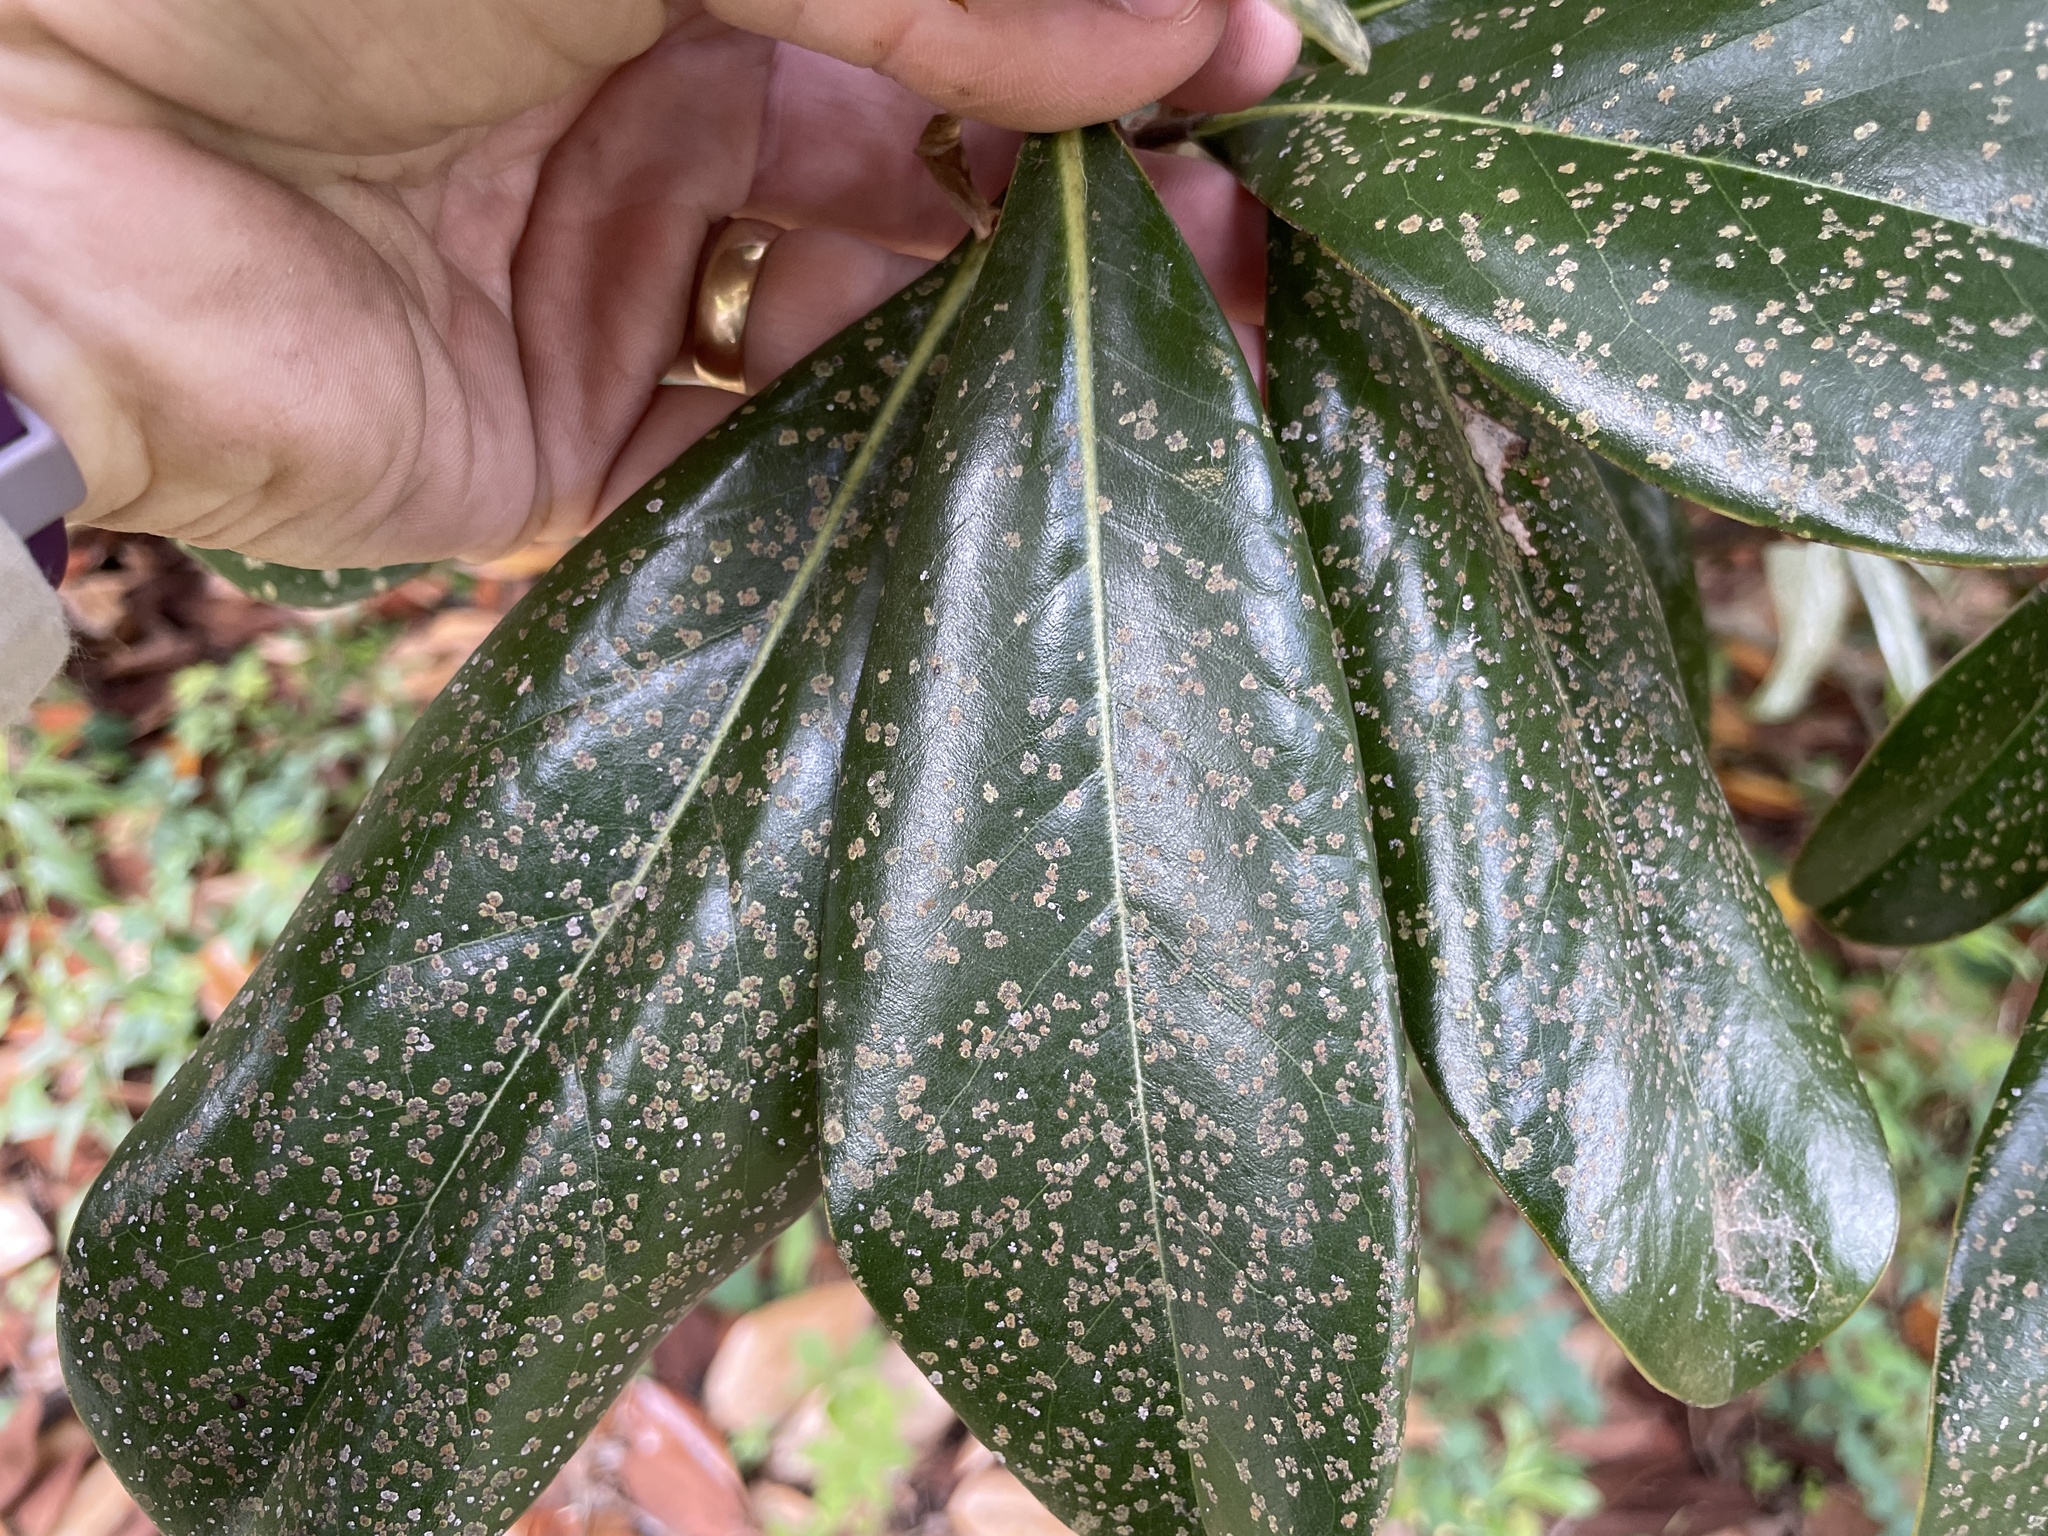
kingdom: Fungi
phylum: Ascomycota
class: Dothideomycetes
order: Strigulales
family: Strigulaceae
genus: Strigula
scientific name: Strigula smaragdula
